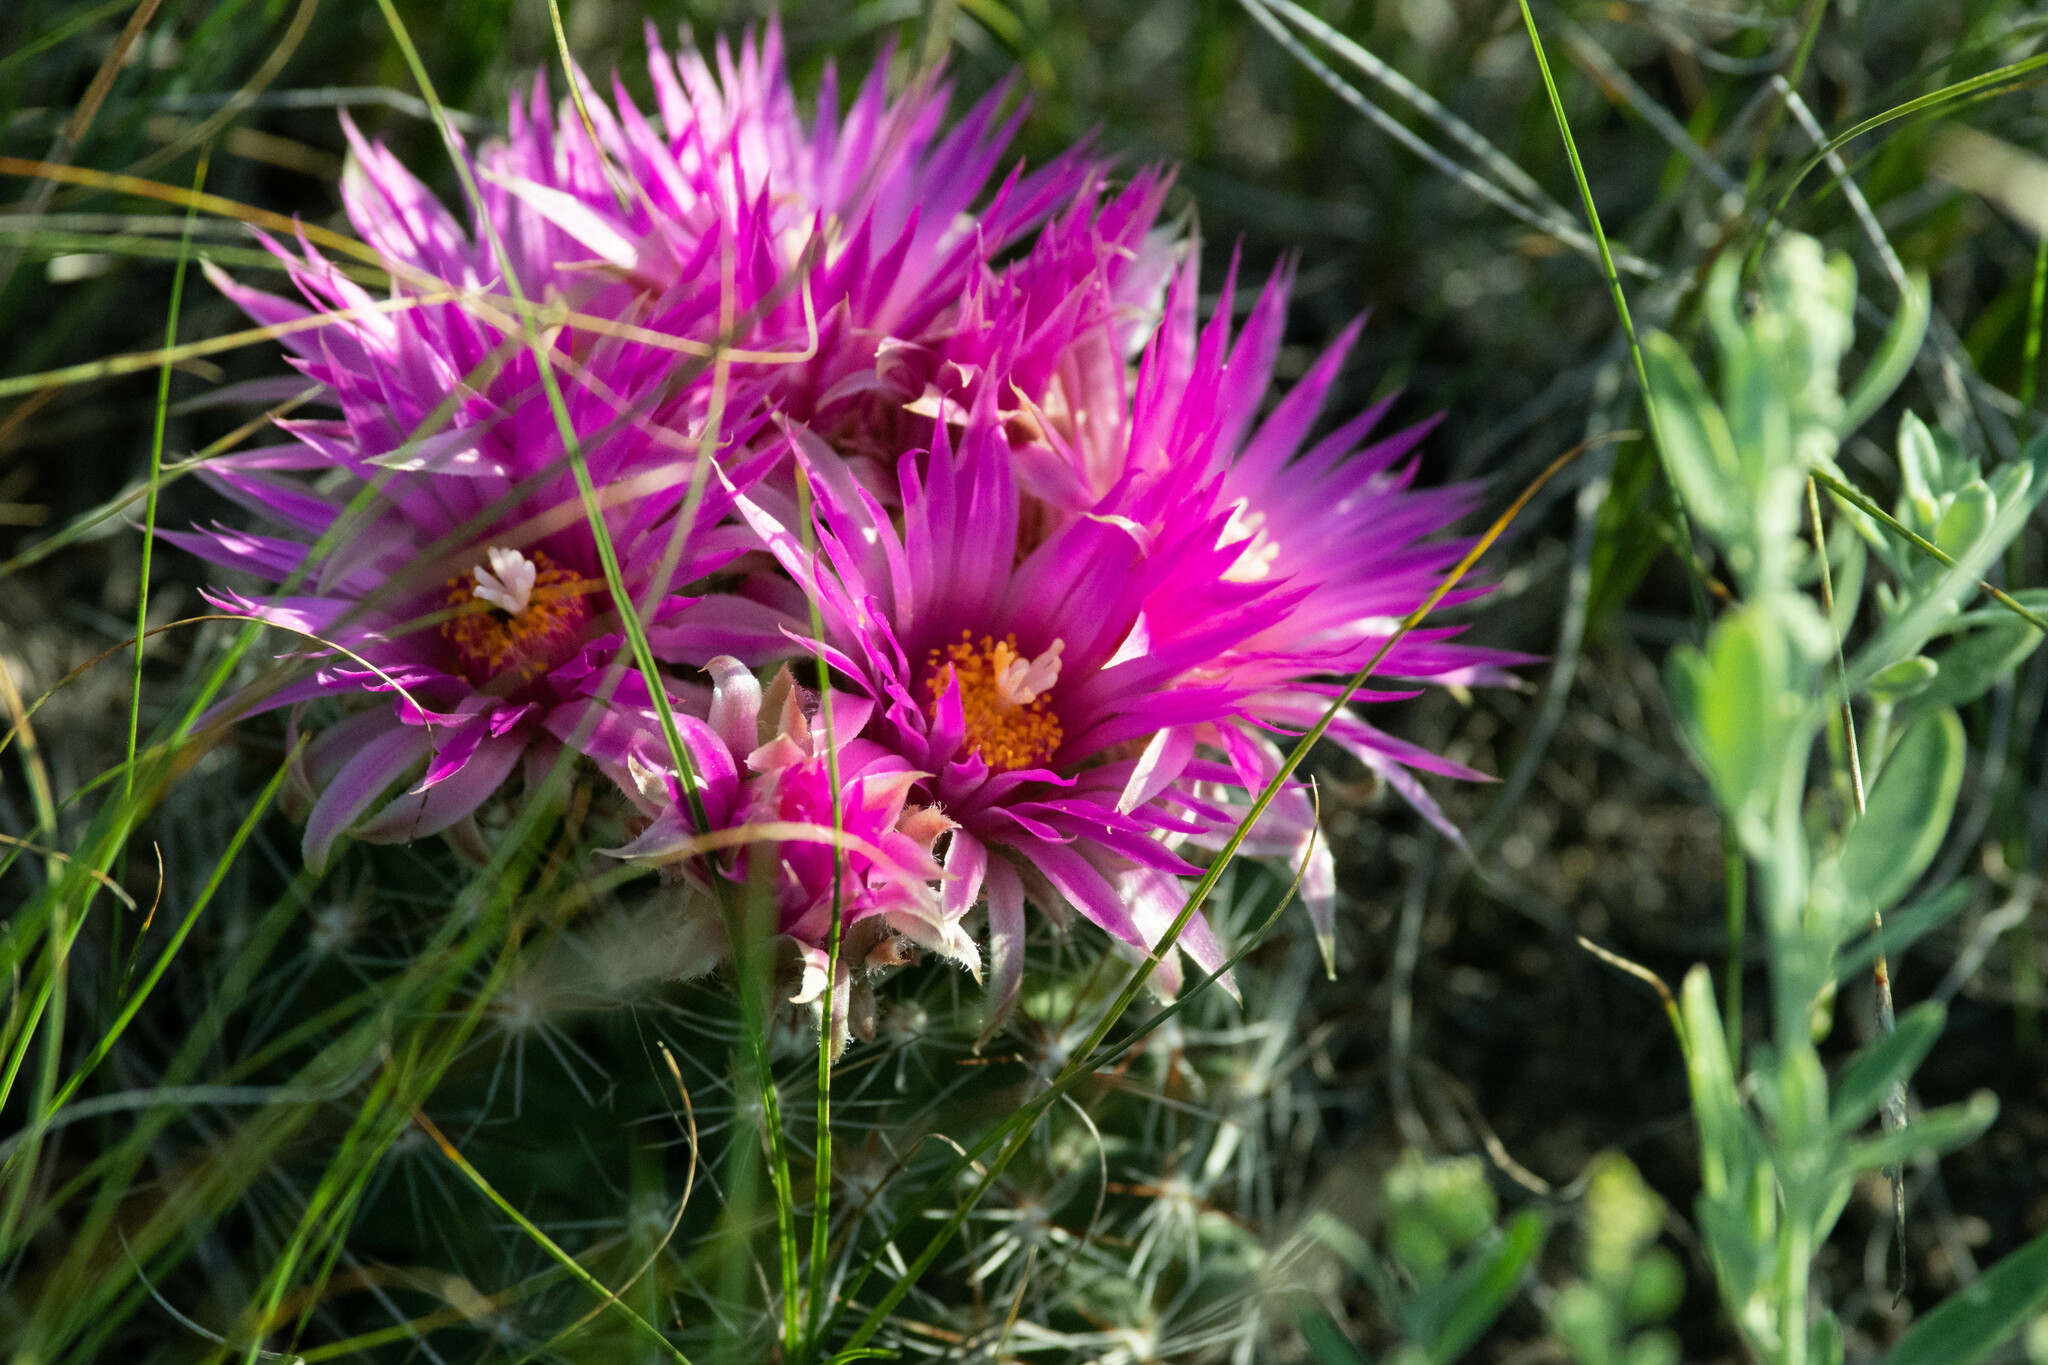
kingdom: Plantae
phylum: Tracheophyta
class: Magnoliopsida
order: Caryophyllales
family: Cactaceae
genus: Pelecyphora
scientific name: Pelecyphora vivipara
